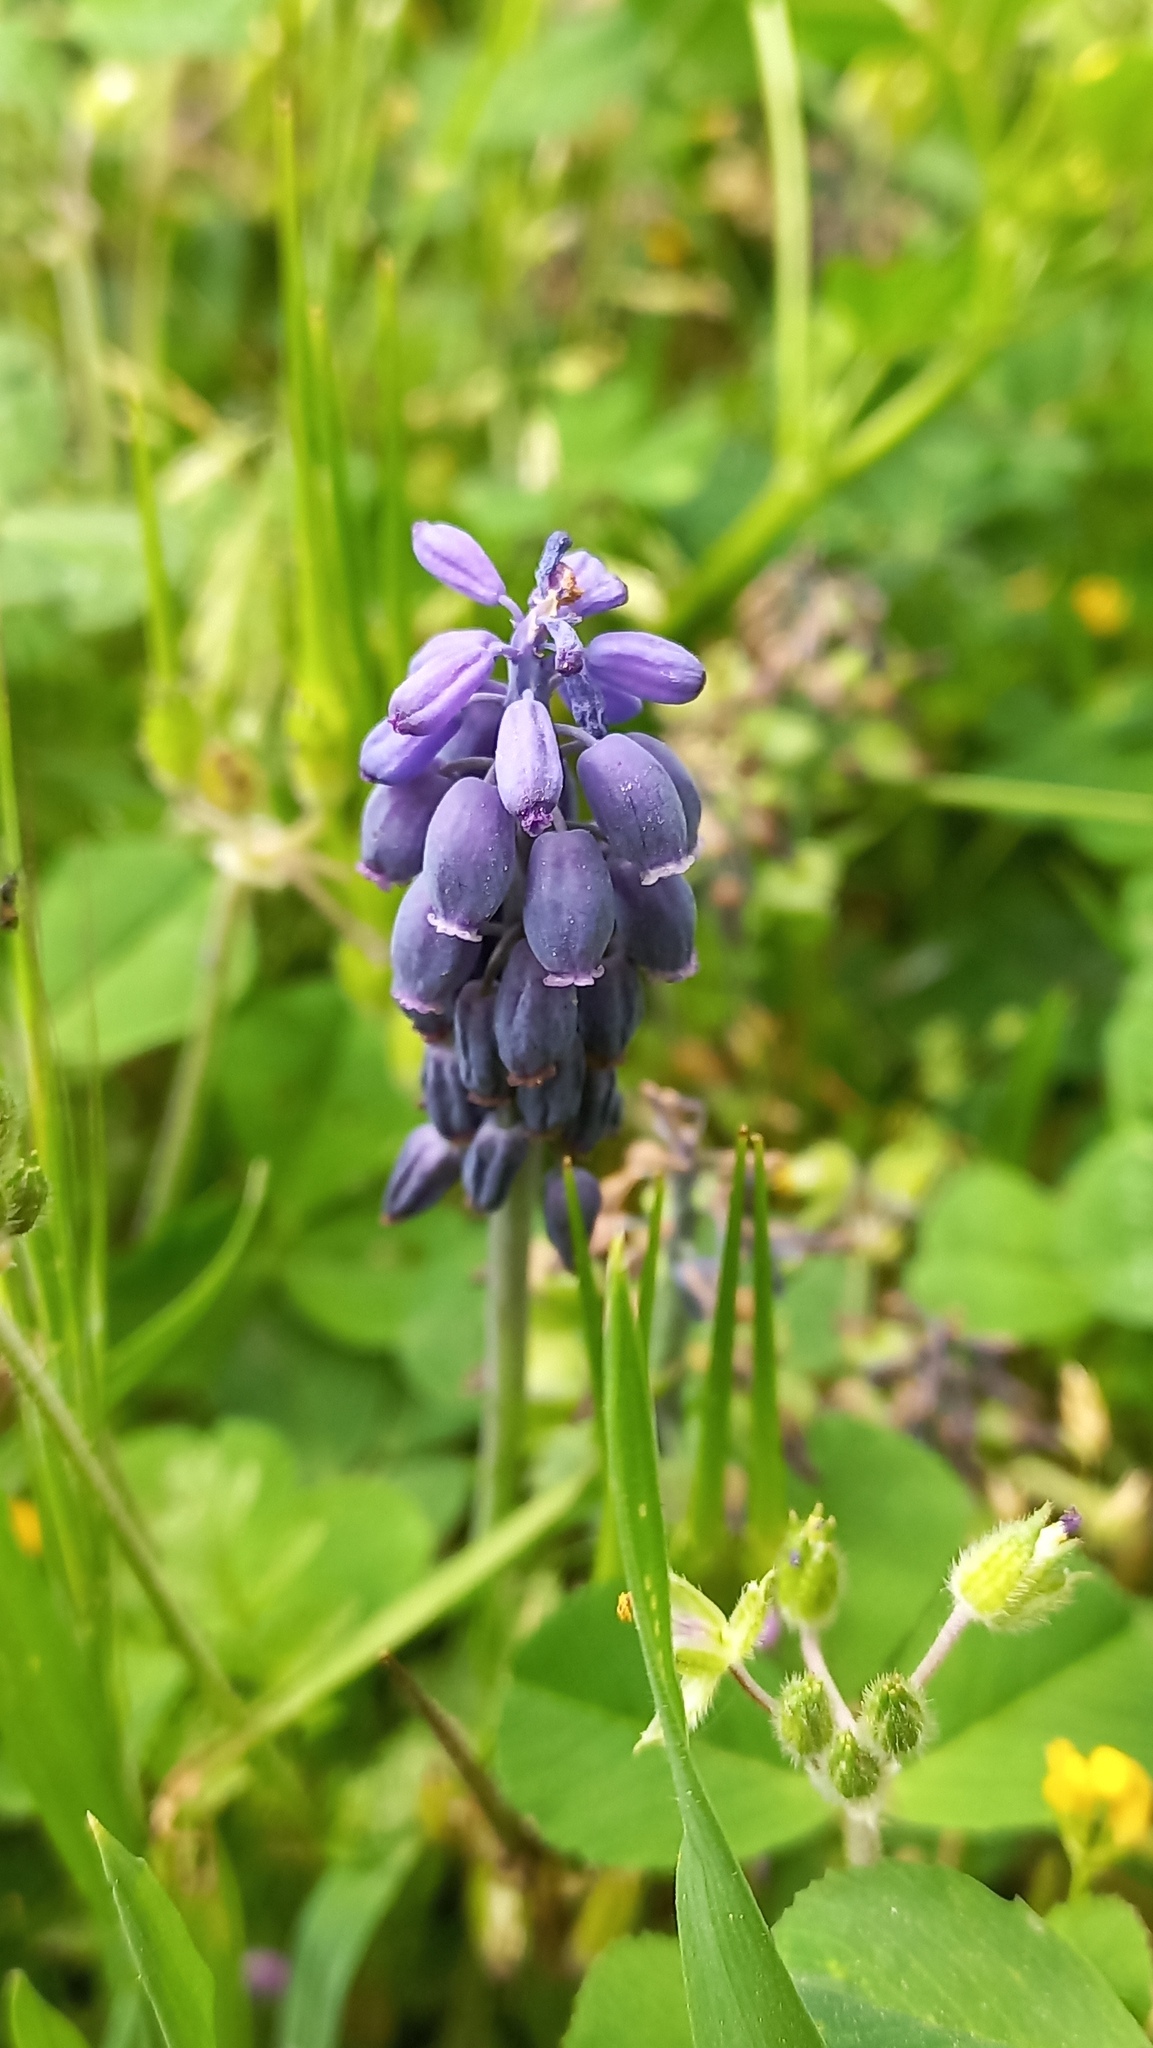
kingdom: Plantae
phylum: Tracheophyta
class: Liliopsida
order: Asparagales
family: Asparagaceae
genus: Muscari
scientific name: Muscari neglectum
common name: Grape-hyacinth
